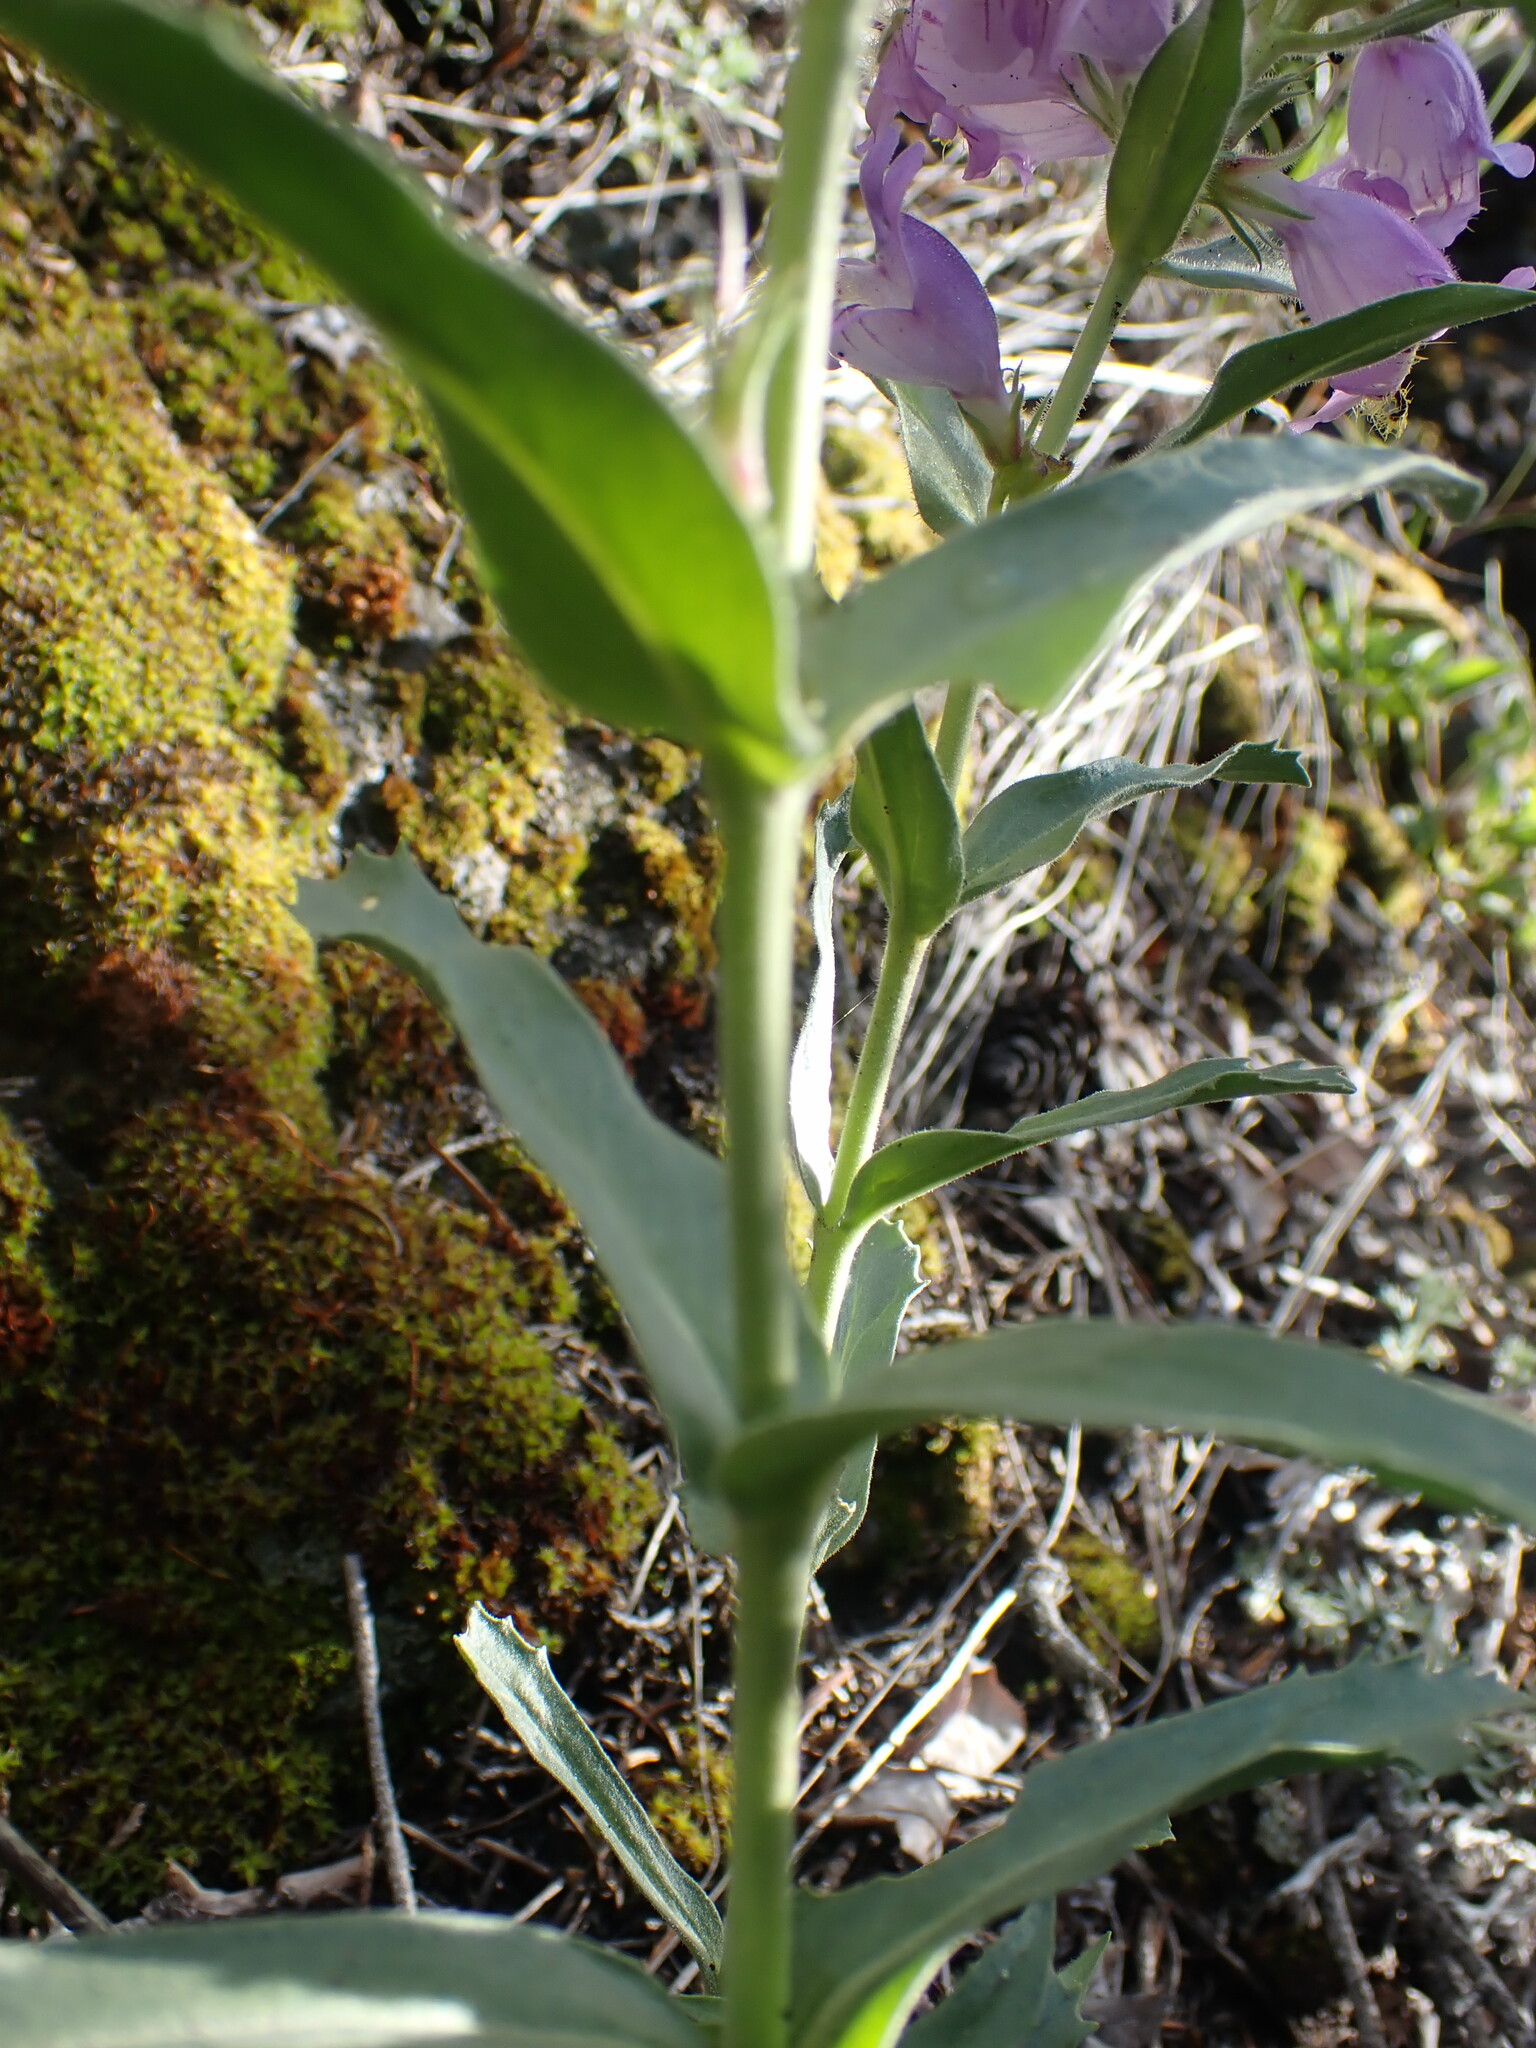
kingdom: Plantae
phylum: Tracheophyta
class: Magnoliopsida
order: Lamiales
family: Plantaginaceae
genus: Penstemon
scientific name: Penstemon eriantherus
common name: Crested beardtongue
